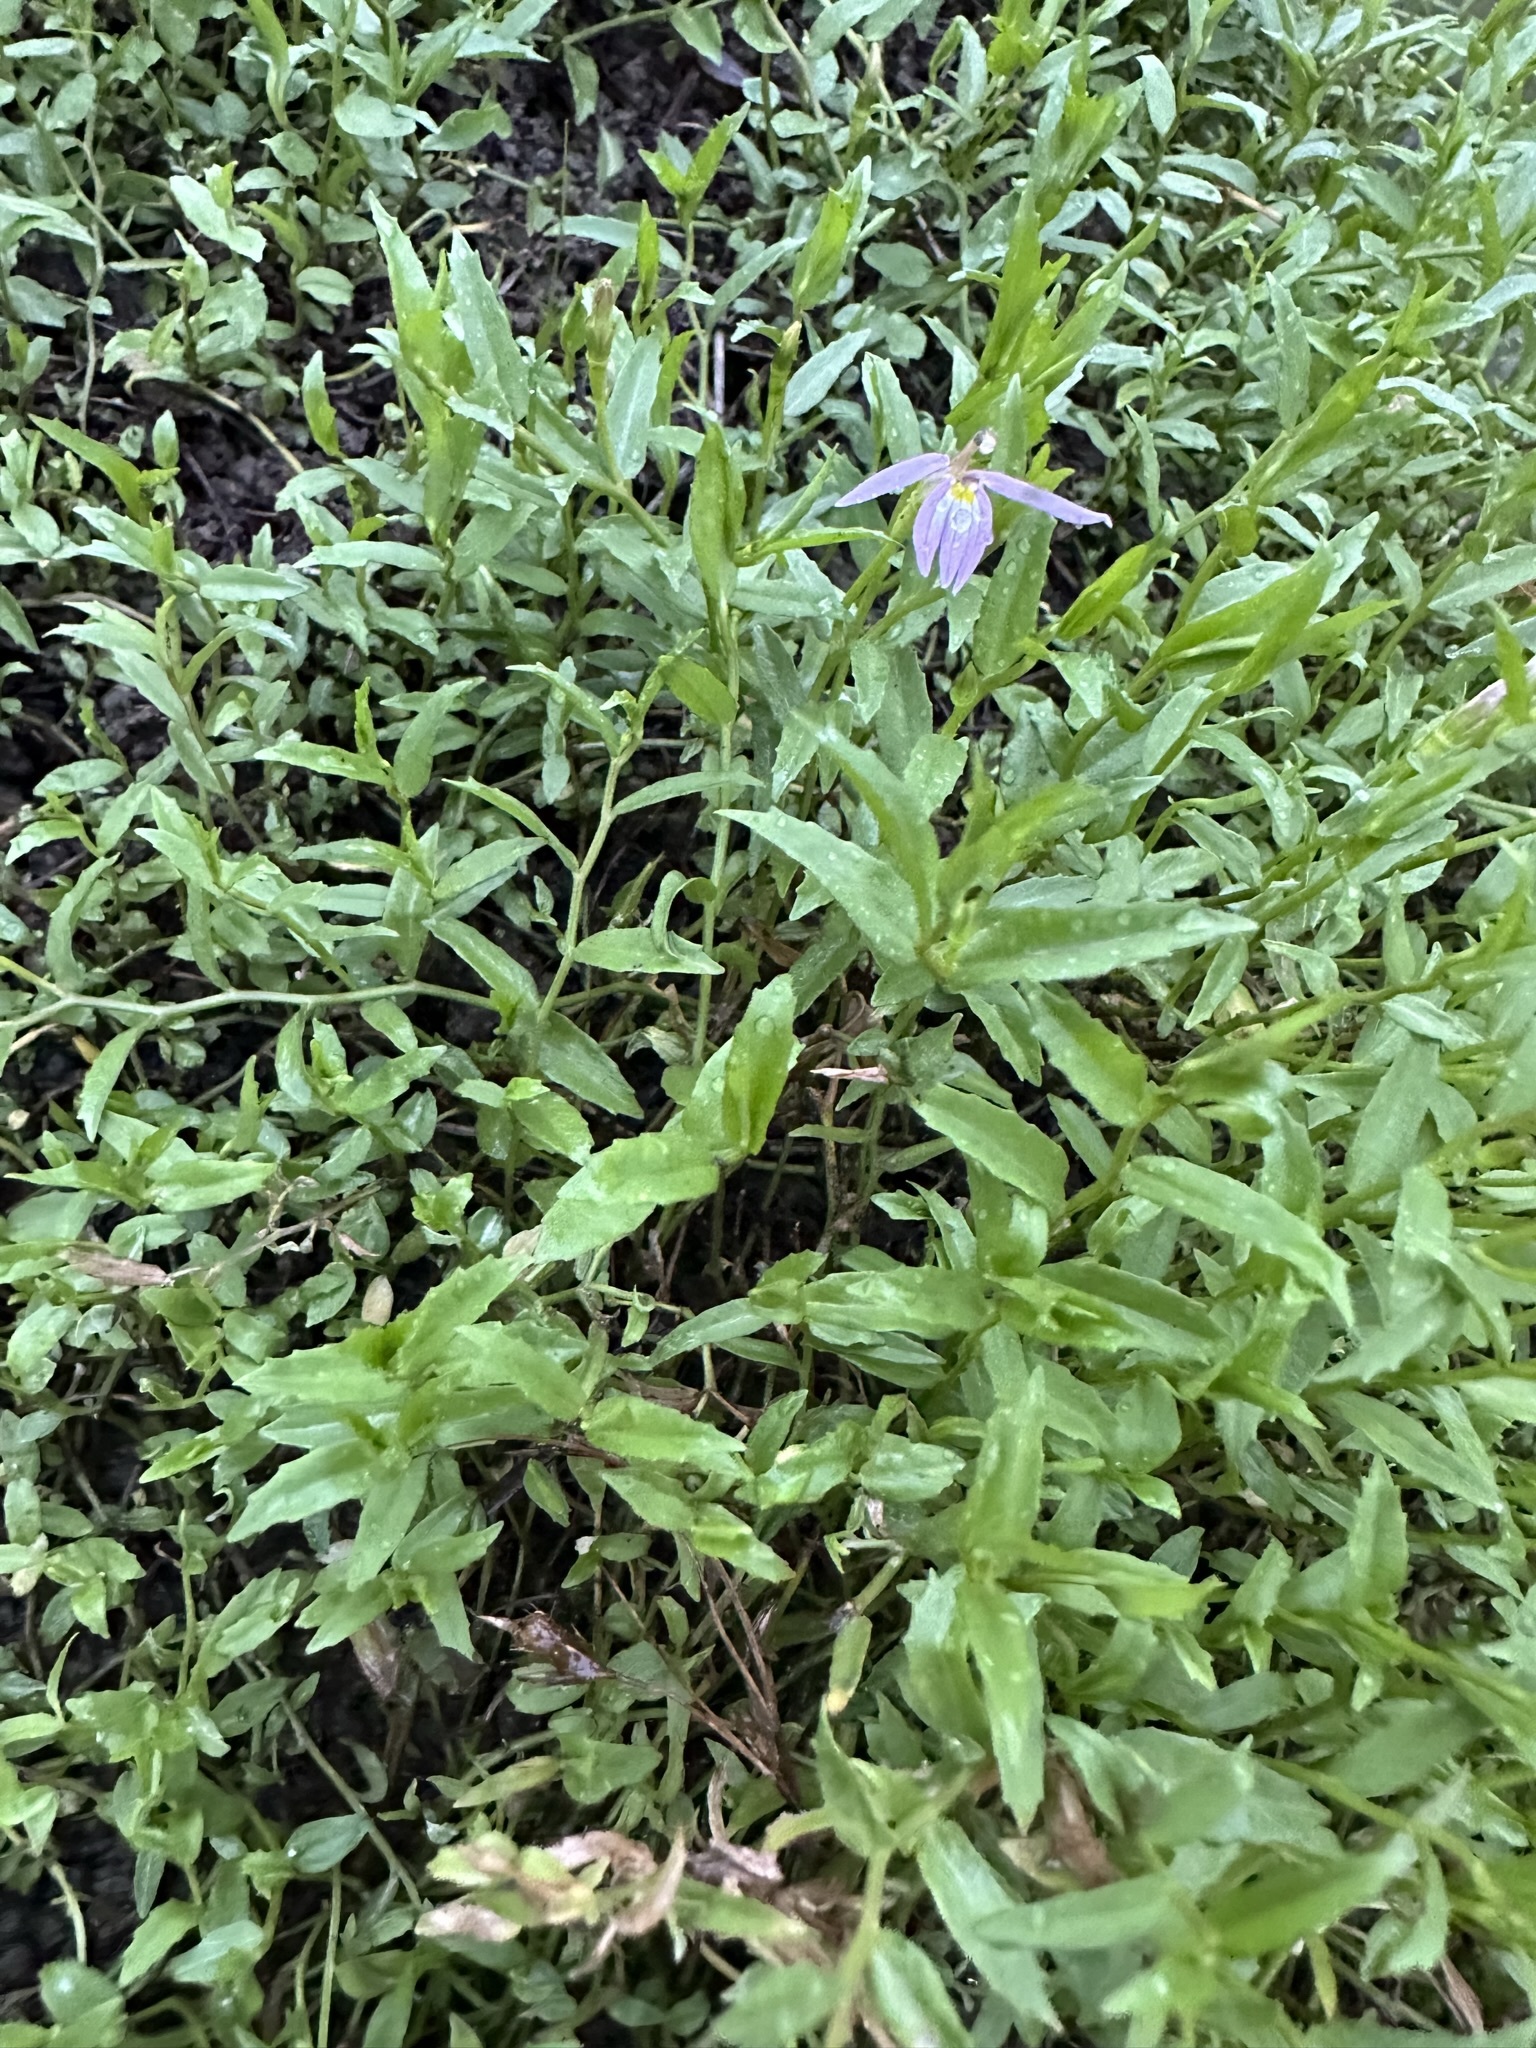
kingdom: Plantae
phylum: Tracheophyta
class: Magnoliopsida
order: Asterales
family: Campanulaceae
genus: Lobelia
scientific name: Lobelia chinensis
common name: Chinese lobelia
